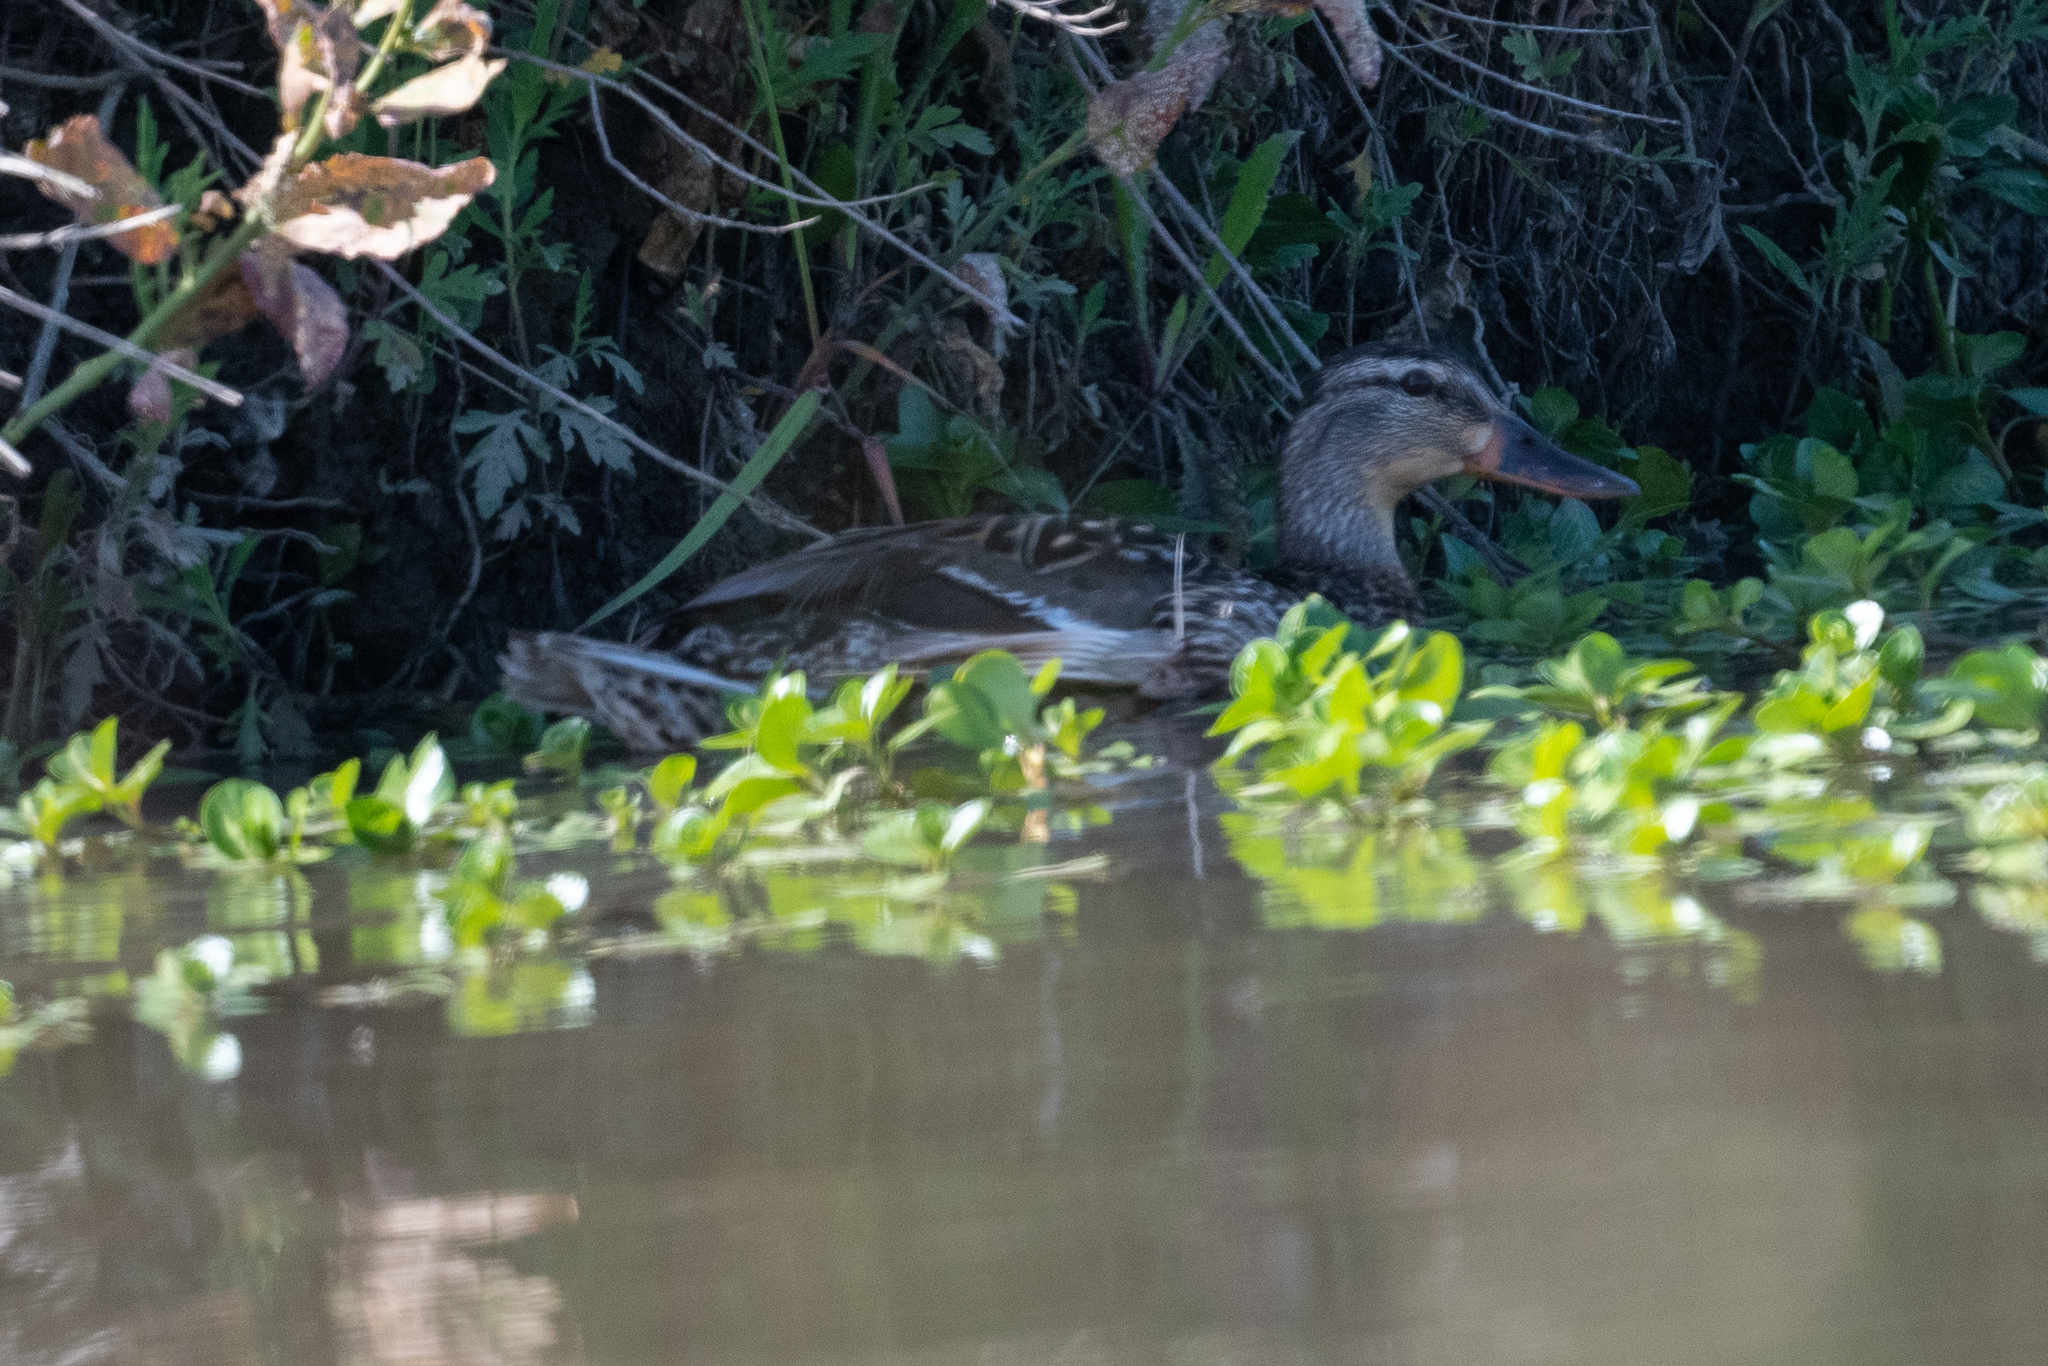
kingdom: Animalia
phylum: Chordata
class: Aves
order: Anseriformes
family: Anatidae
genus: Anas
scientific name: Anas platyrhynchos
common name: Mallard
